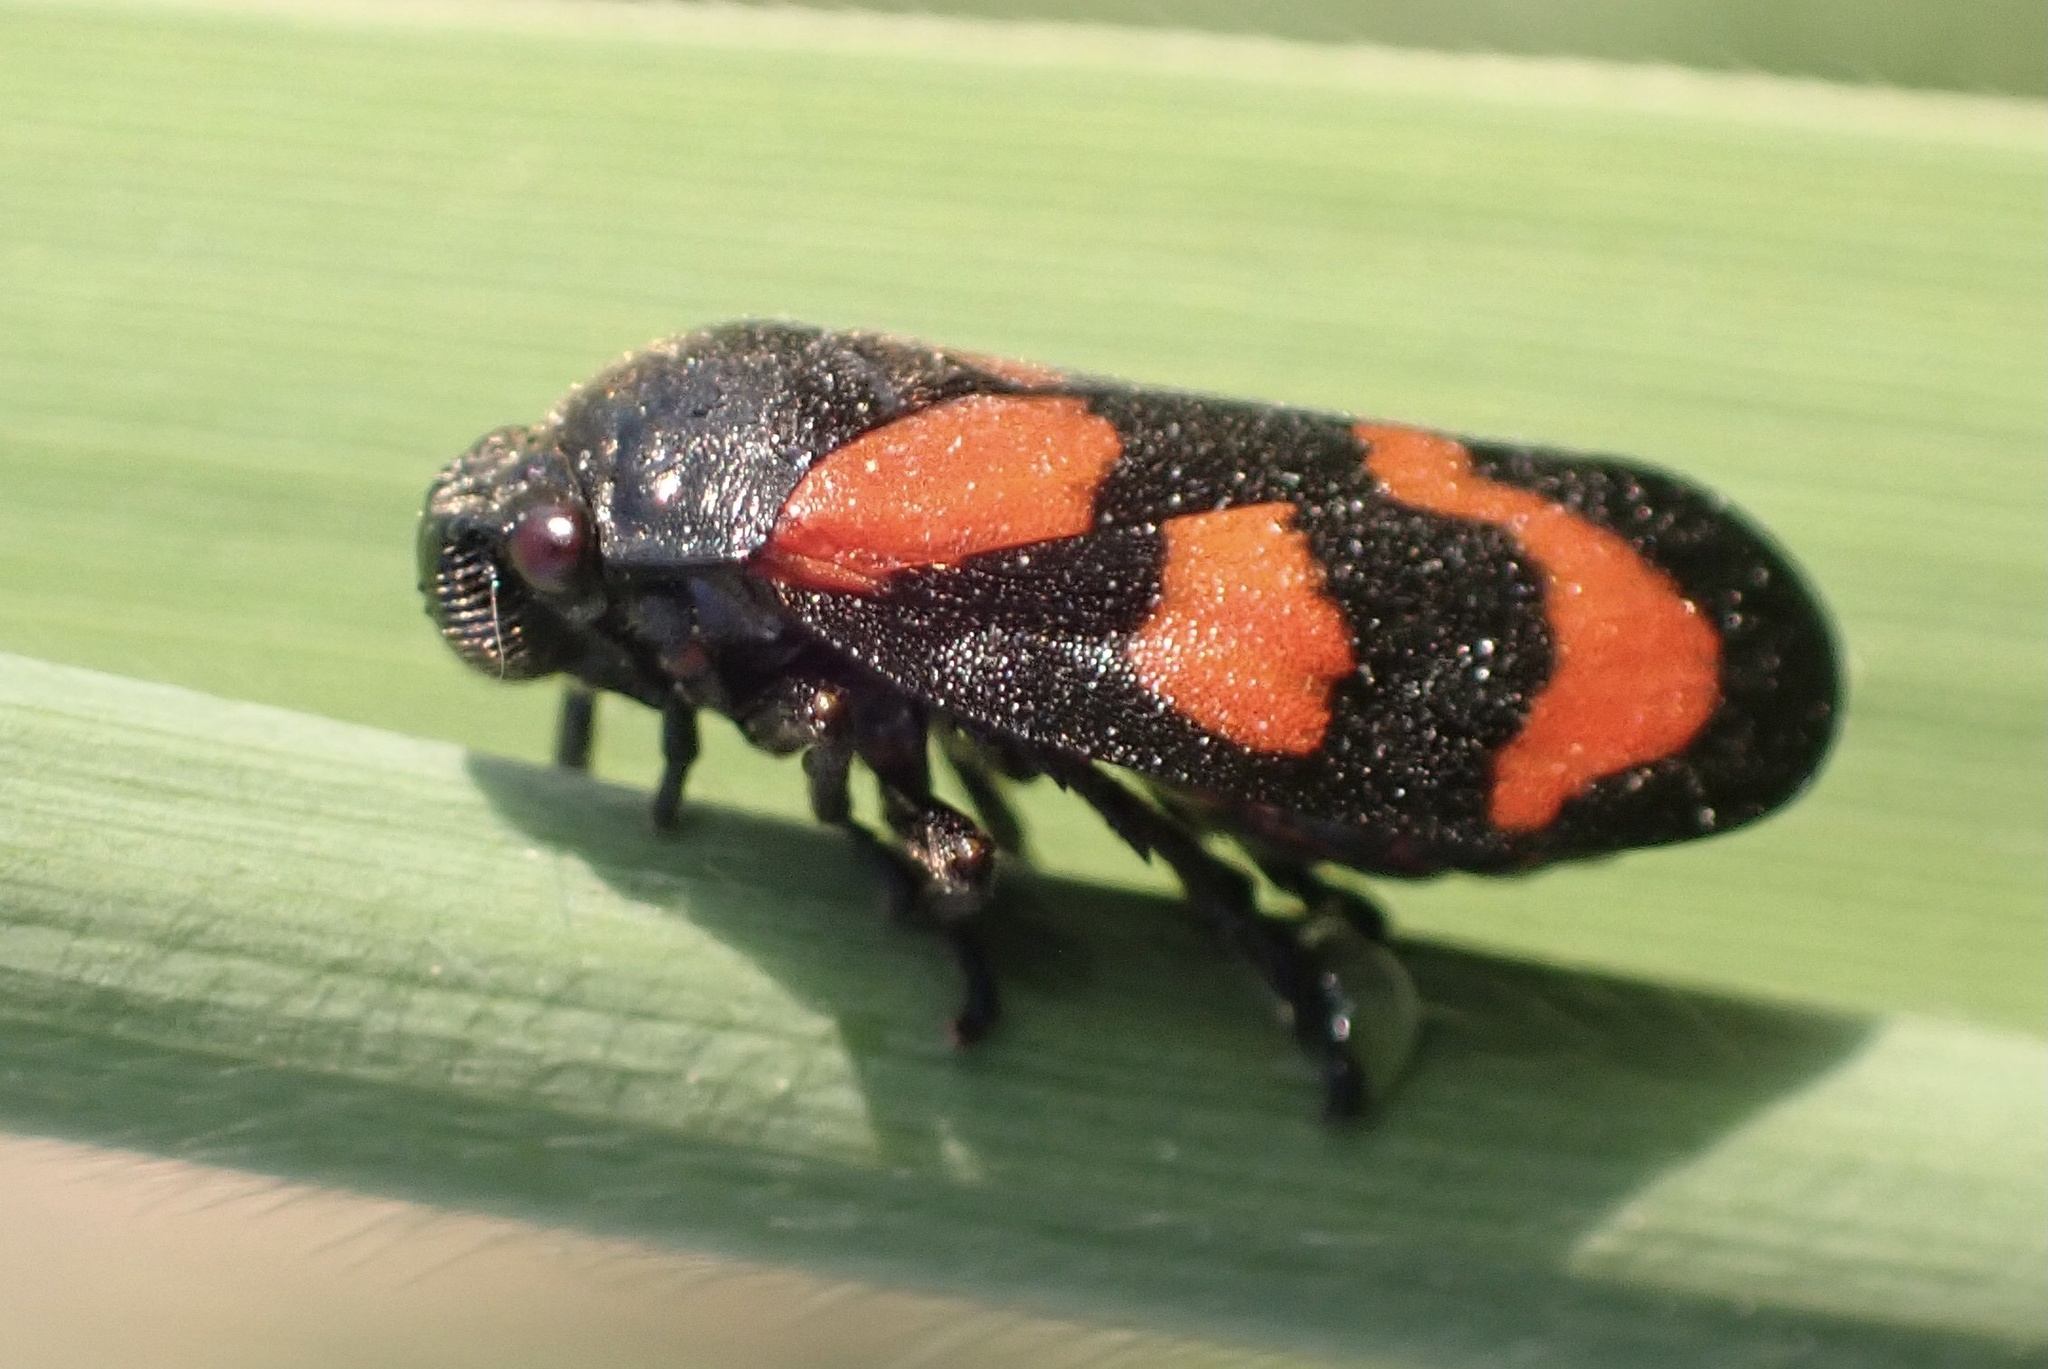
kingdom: Animalia
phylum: Arthropoda
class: Insecta
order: Hemiptera
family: Cercopidae
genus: Cercopis
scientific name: Cercopis vulnerata
